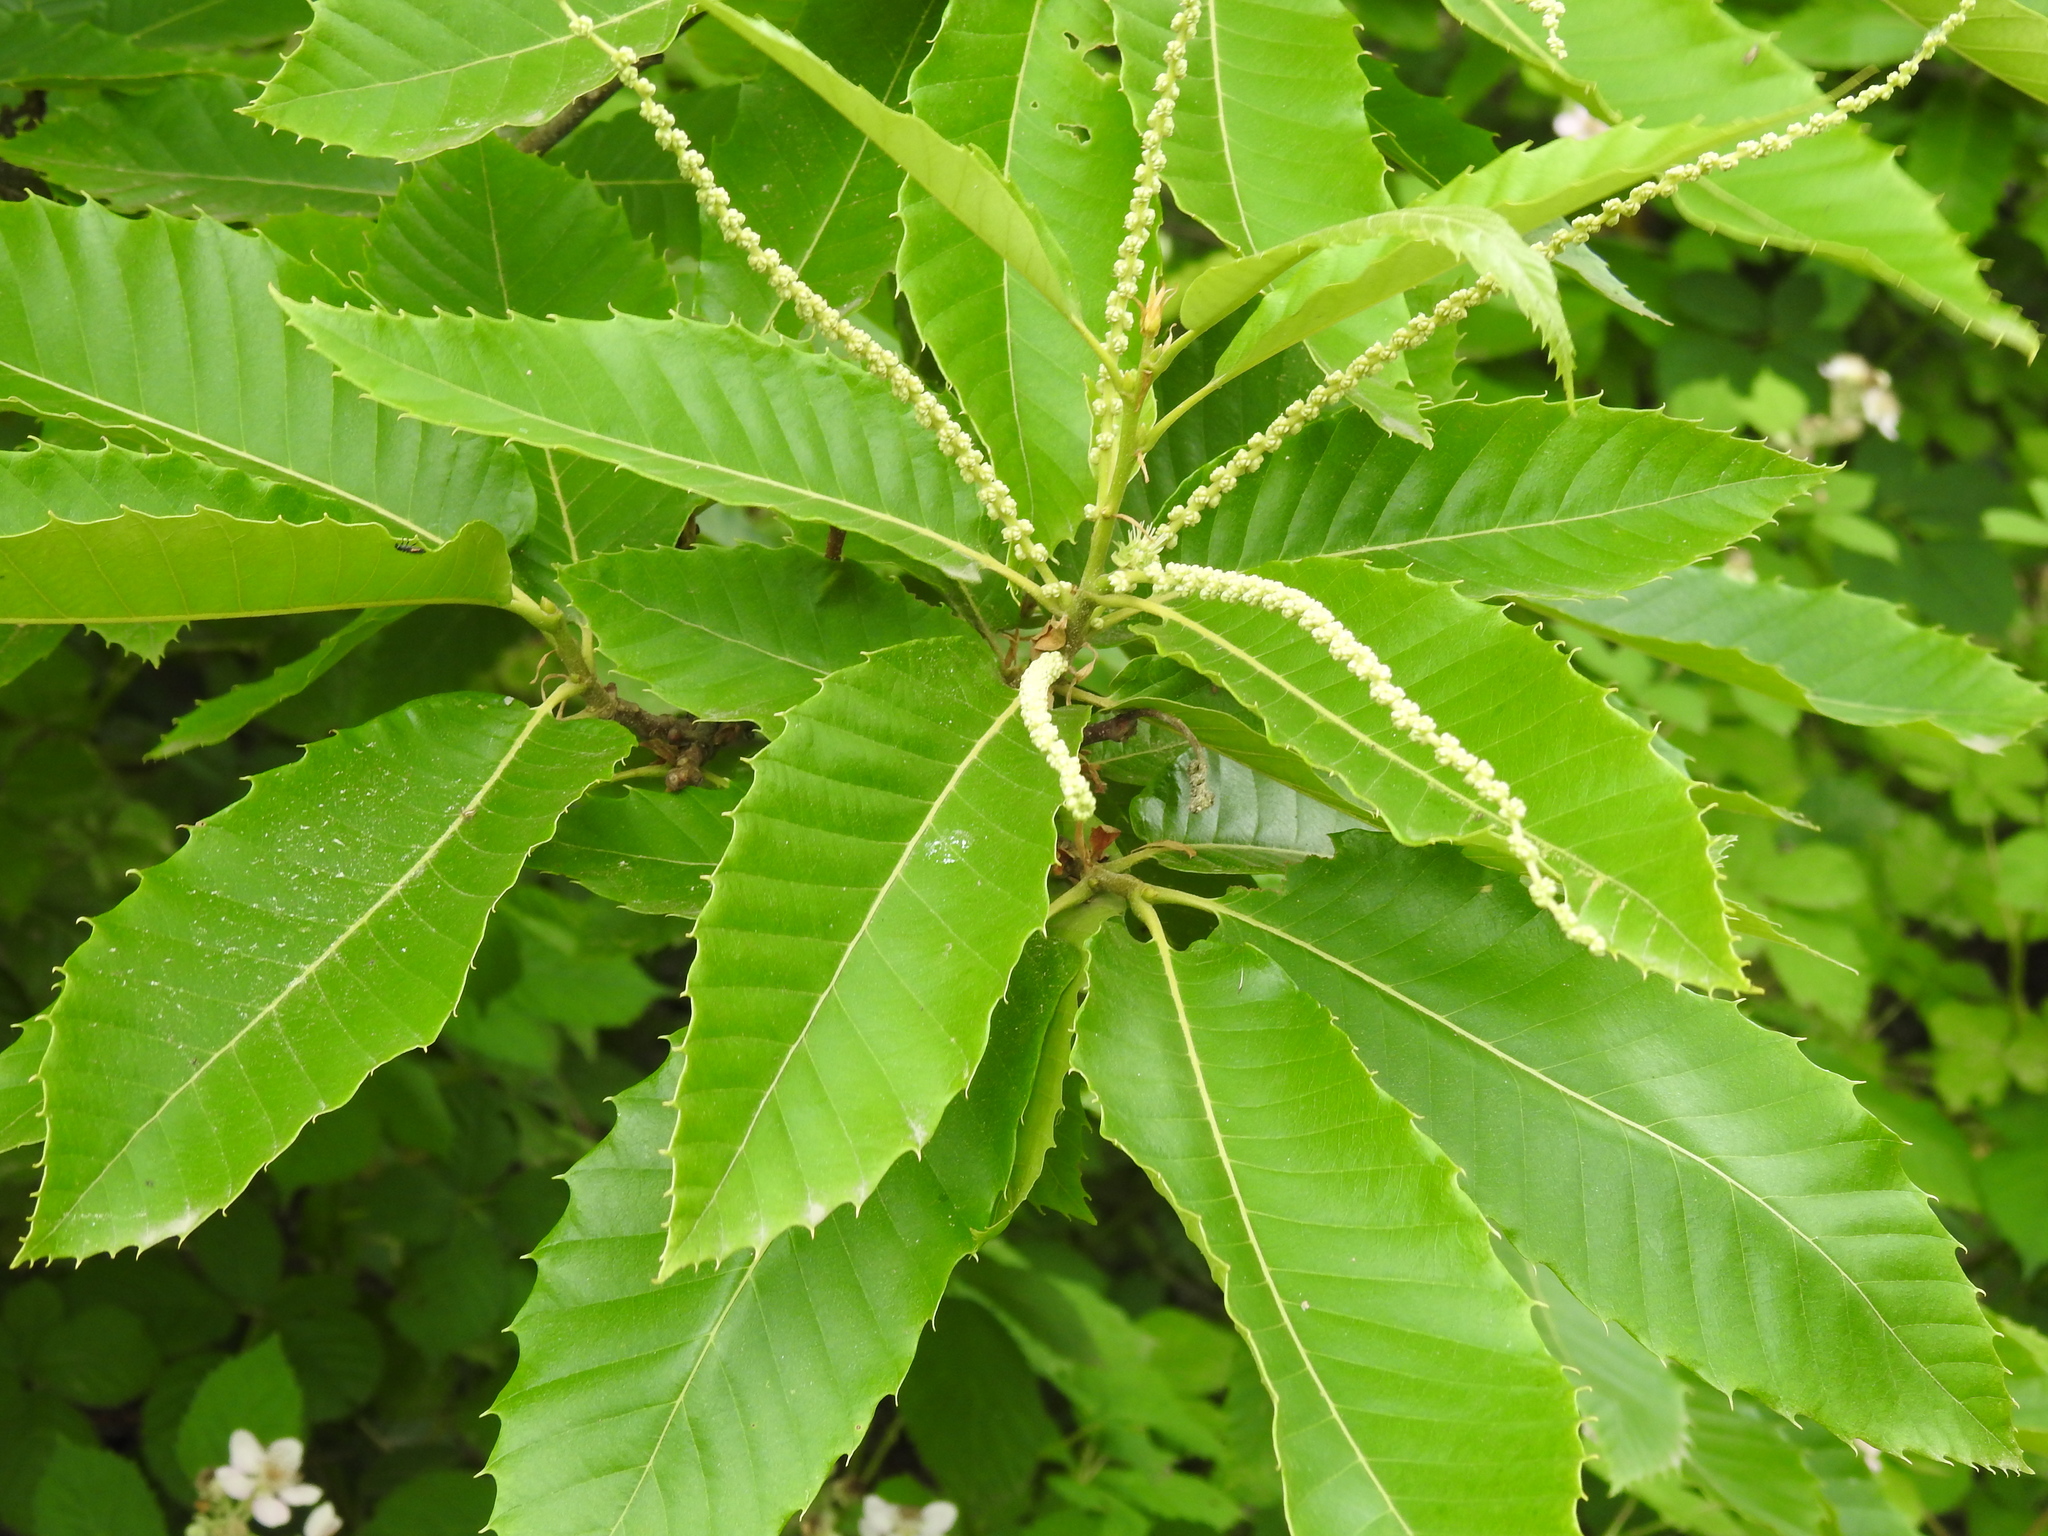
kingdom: Plantae
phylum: Tracheophyta
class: Magnoliopsida
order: Fagales
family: Fagaceae
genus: Castanea
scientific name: Castanea sativa
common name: Sweet chestnut
